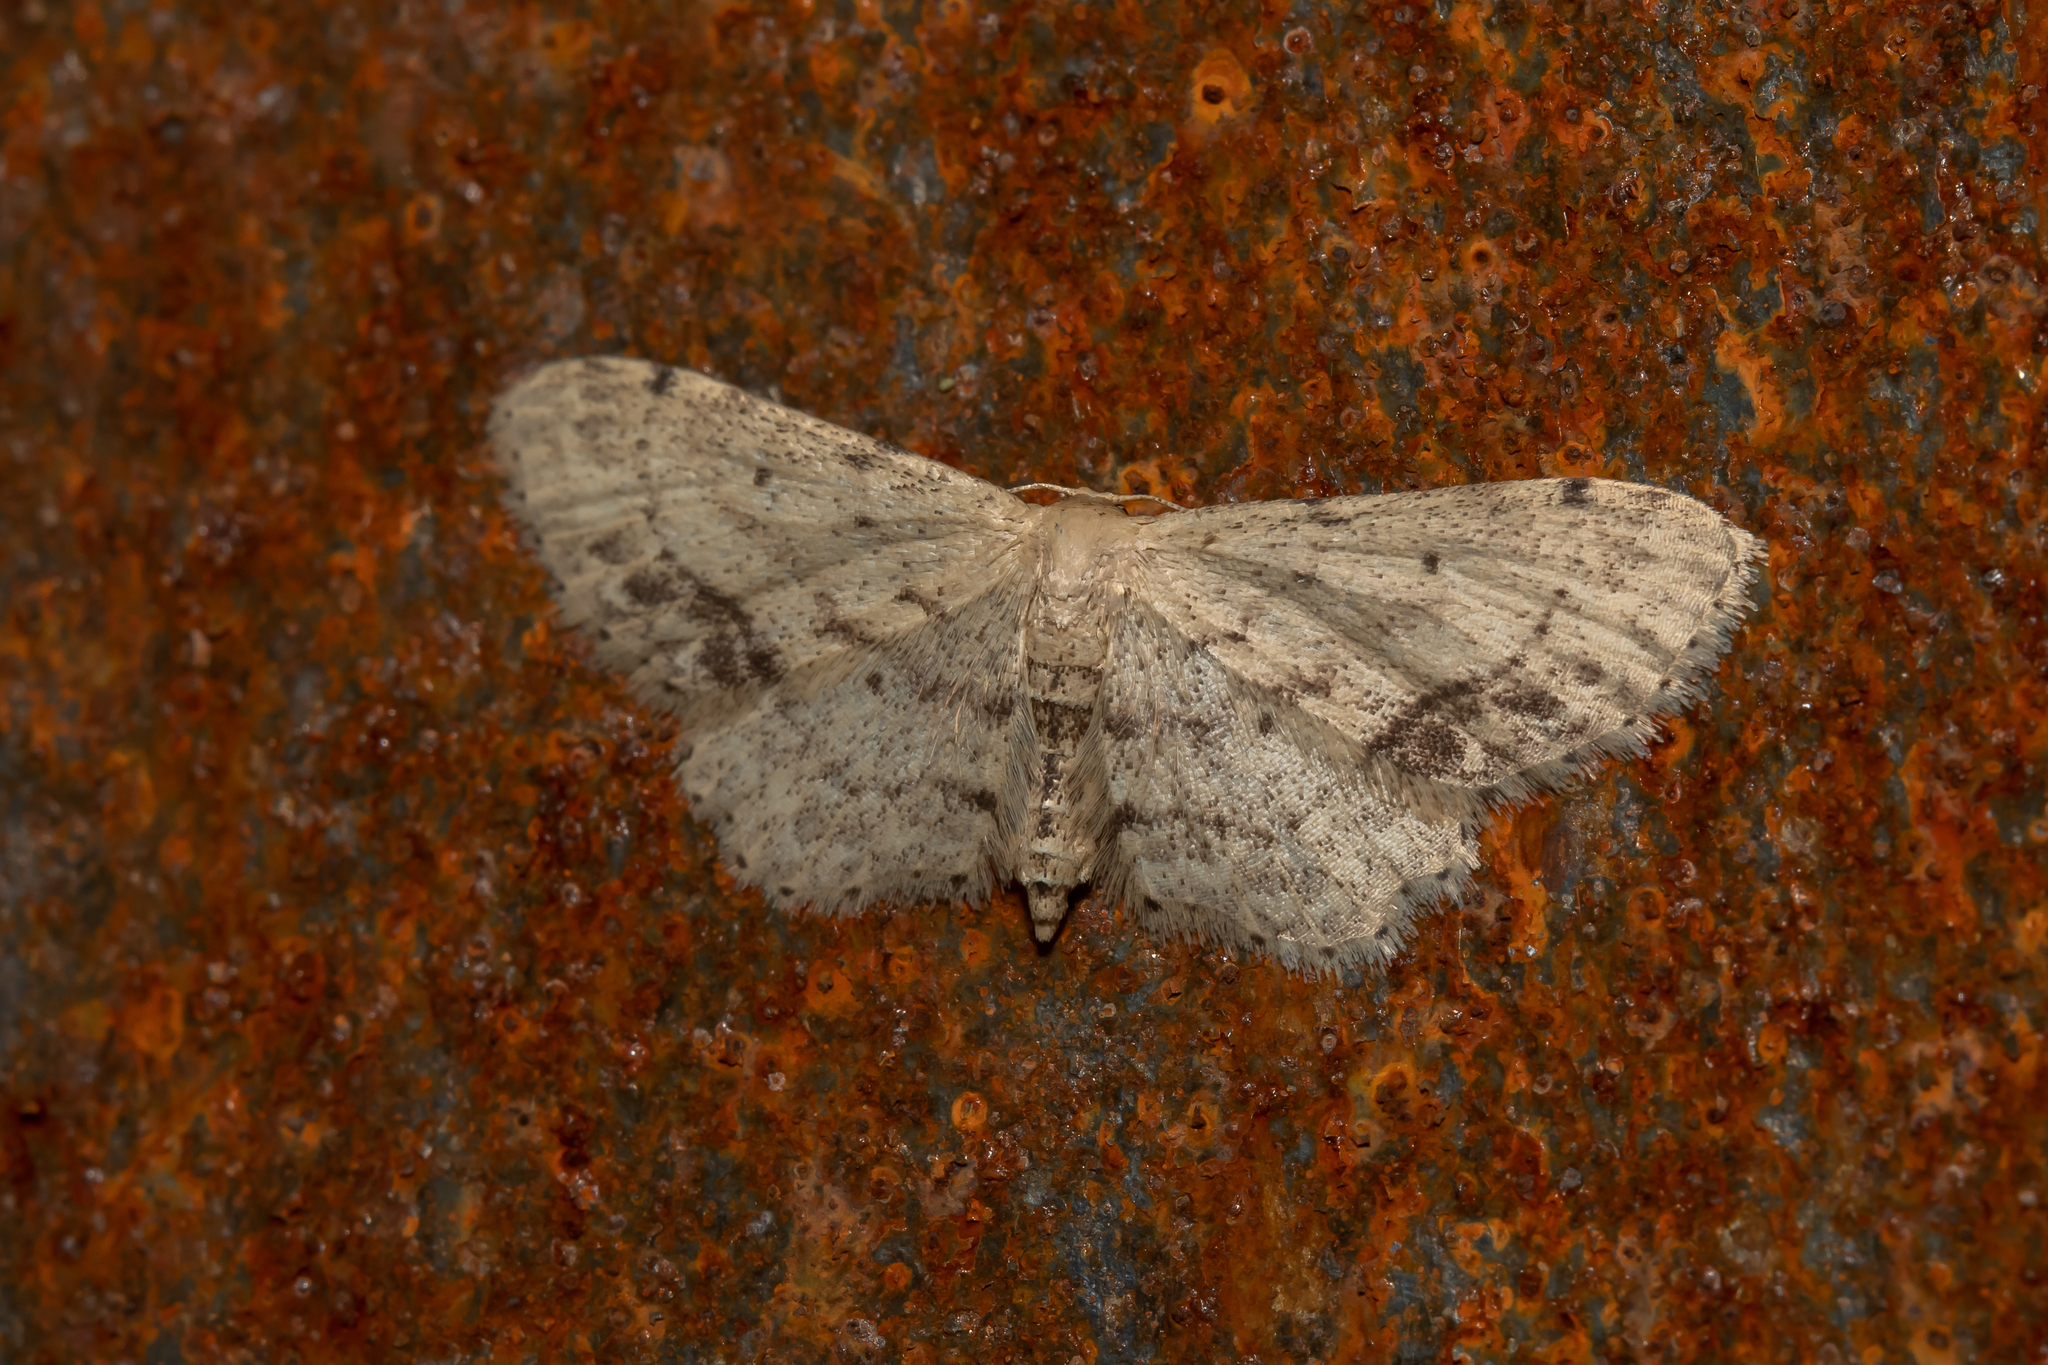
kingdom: Animalia
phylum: Arthropoda
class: Insecta
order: Lepidoptera
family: Geometridae
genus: Idaea
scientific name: Idaea dimidiata
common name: Single-dotted wave
